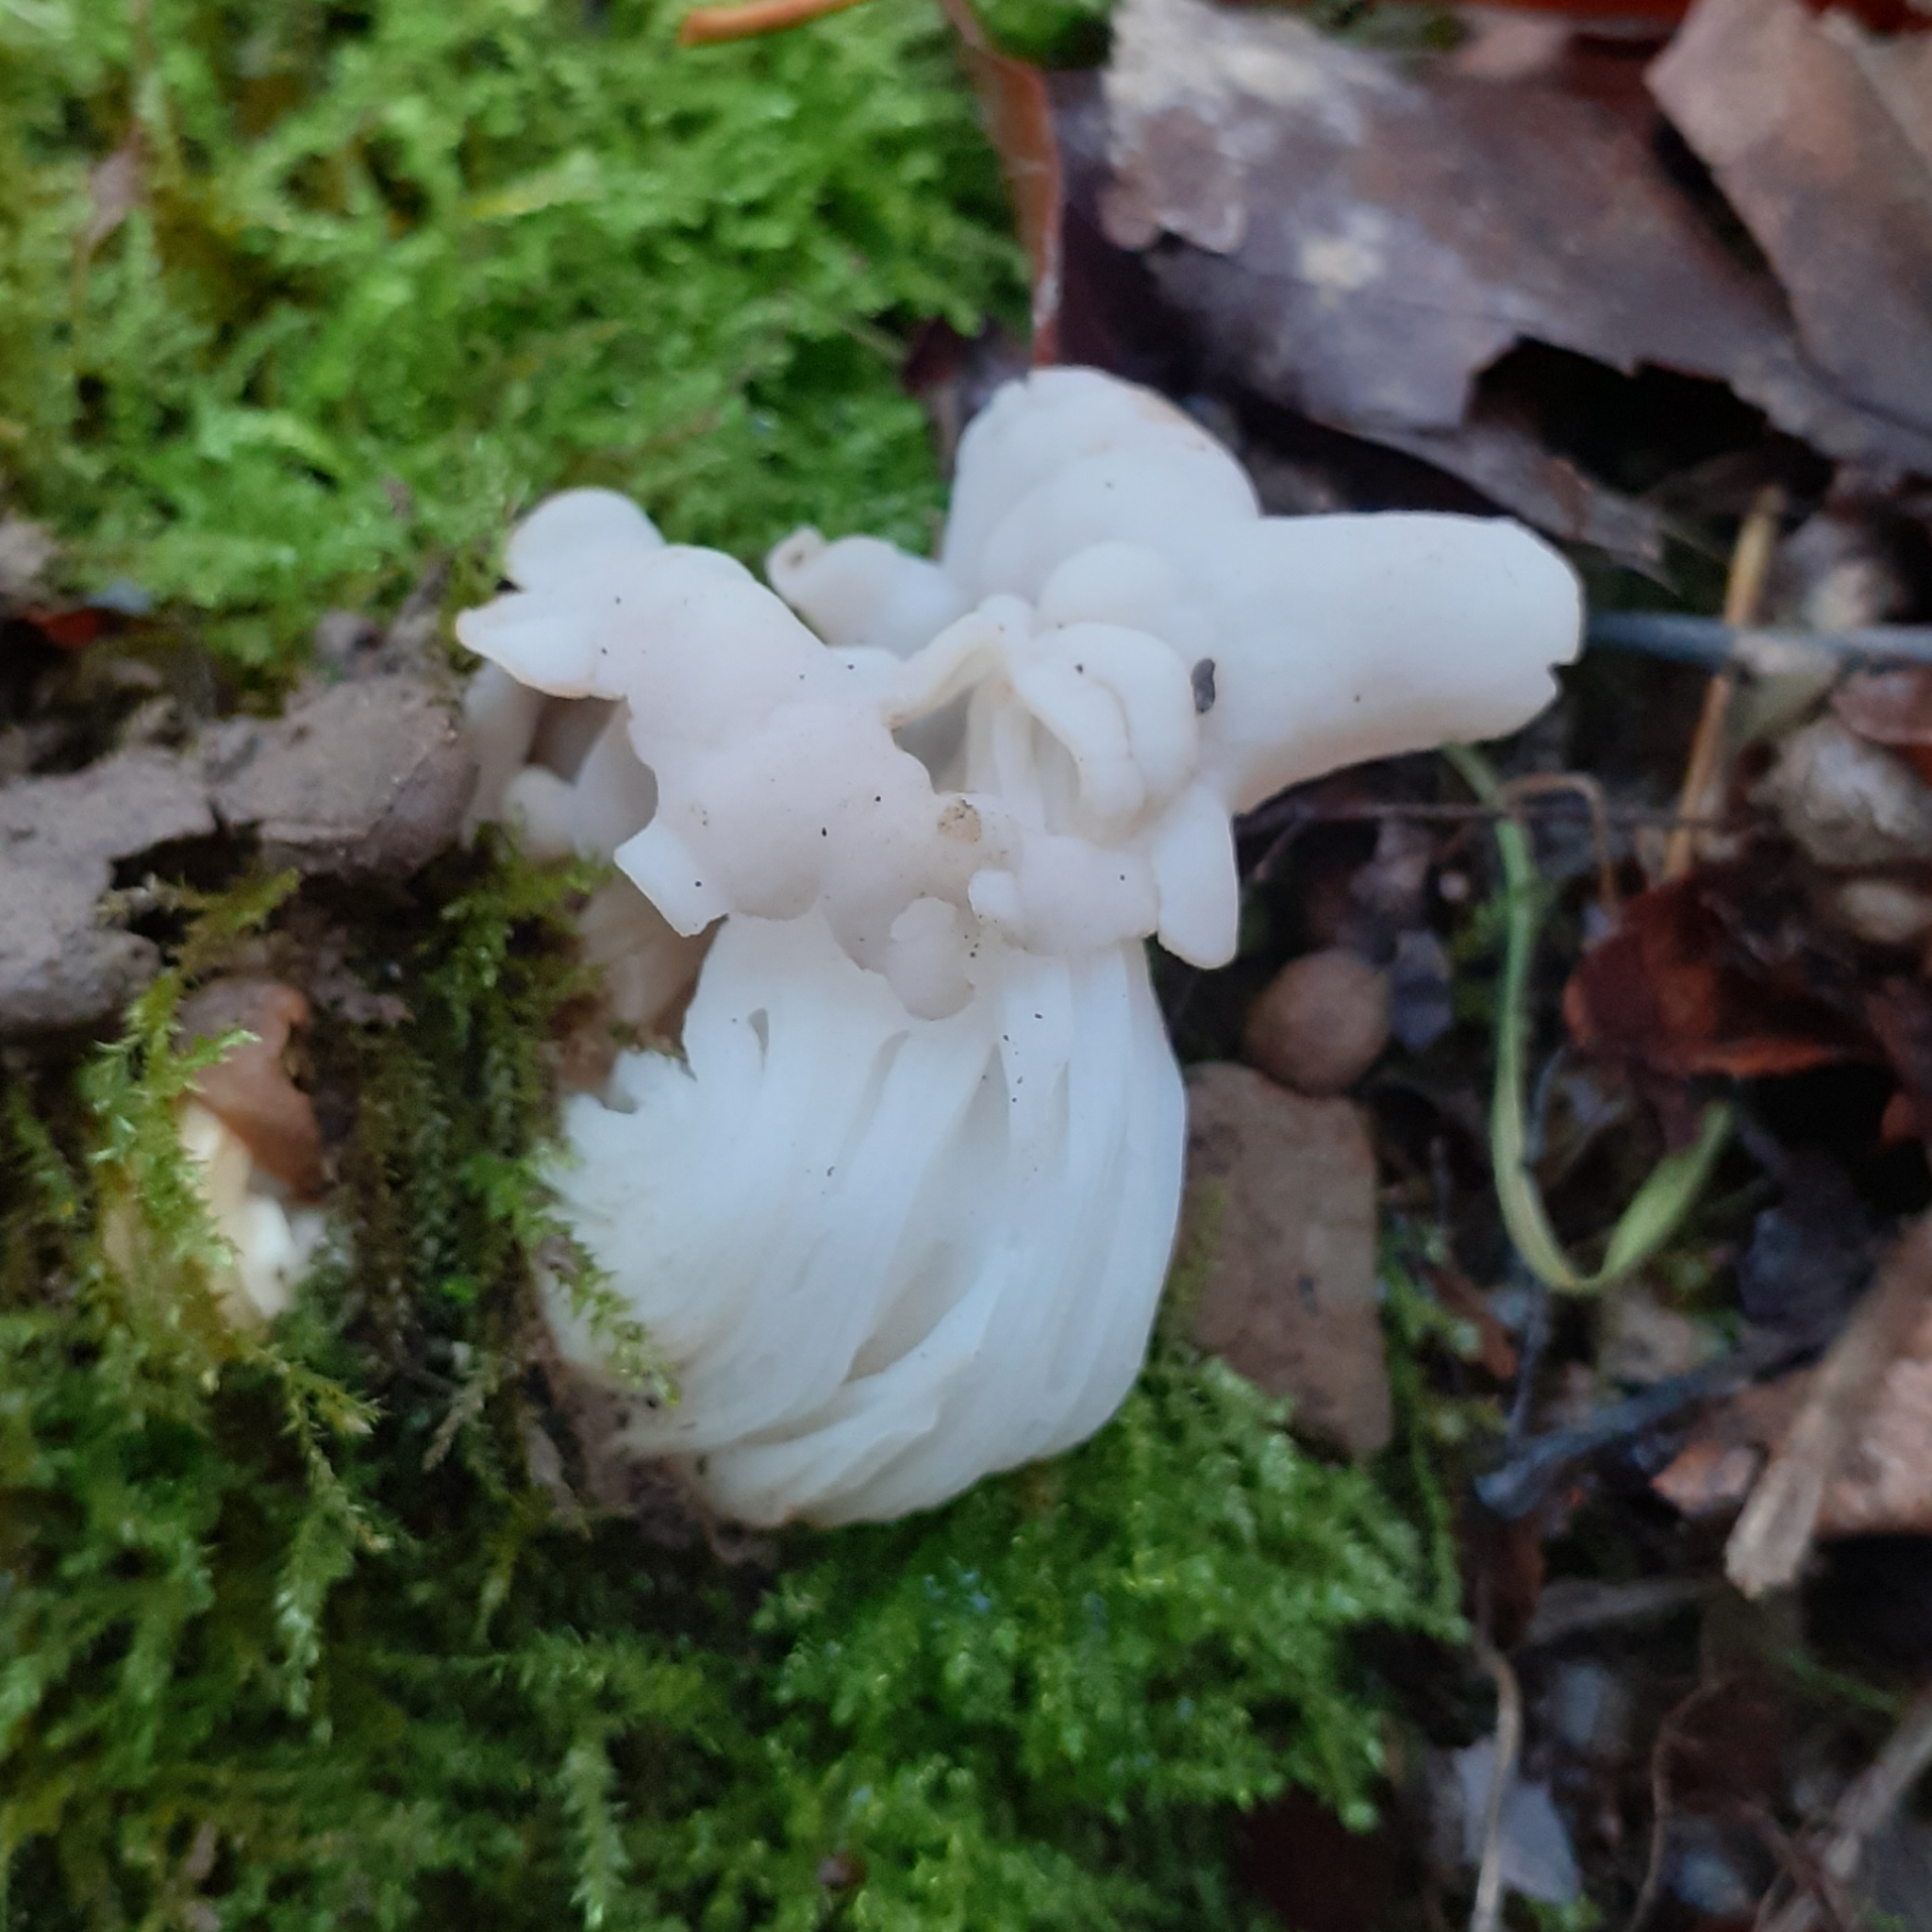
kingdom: Fungi
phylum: Ascomycota
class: Pezizomycetes
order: Pezizales
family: Helvellaceae
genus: Helvella
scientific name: Helvella crispa
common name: White saddle
